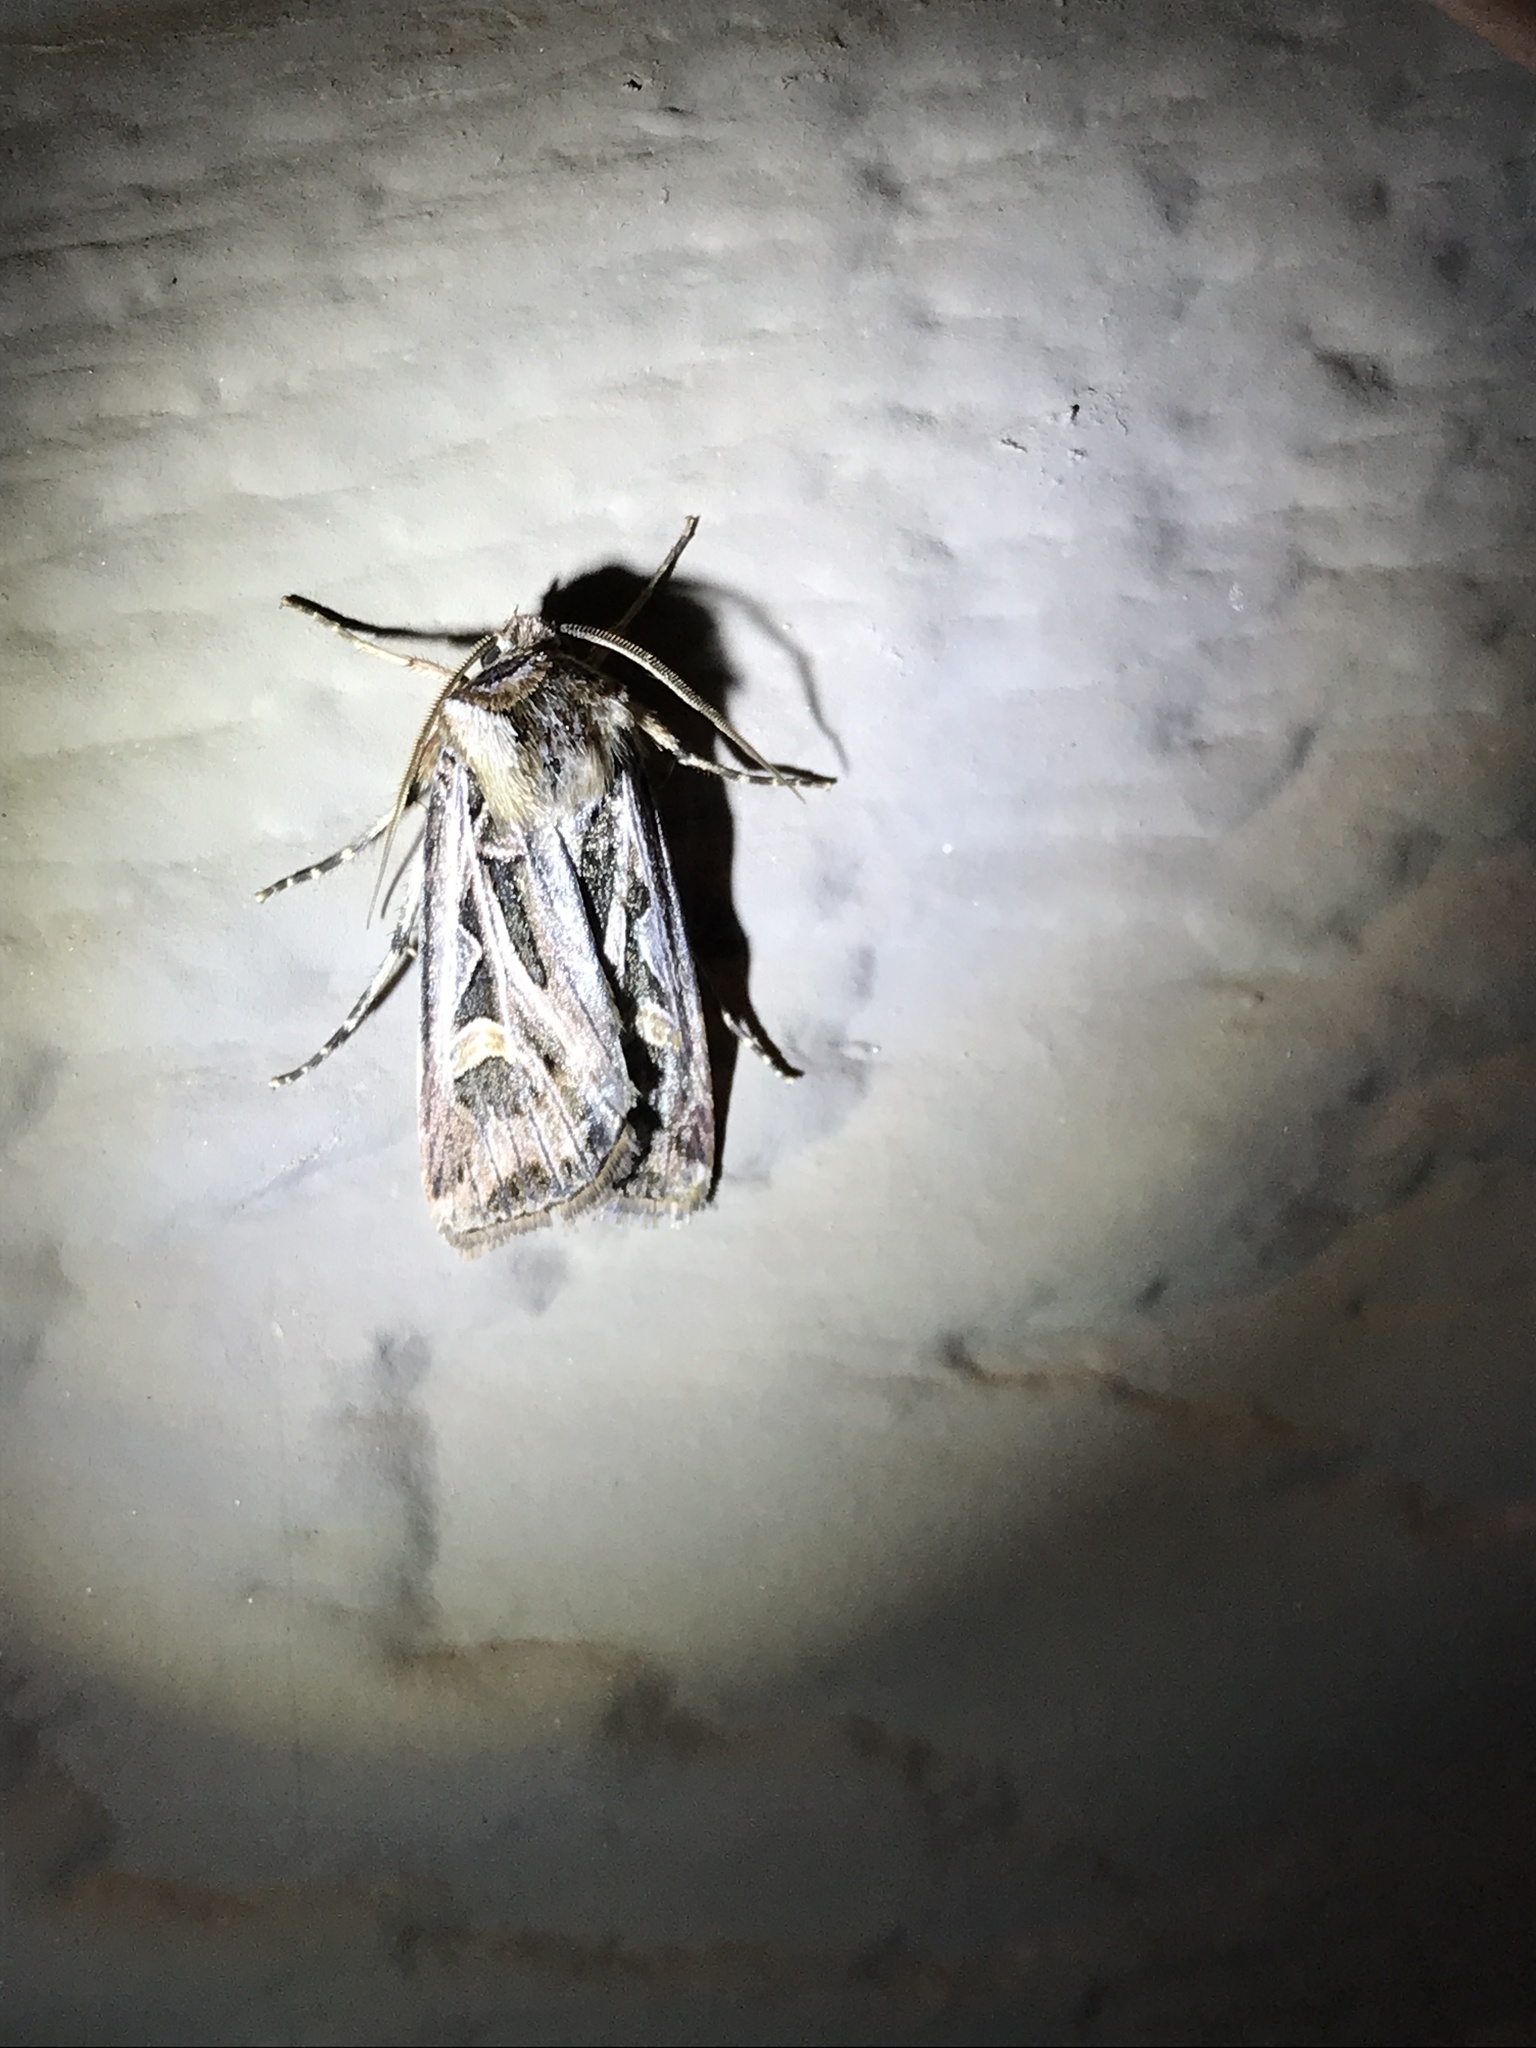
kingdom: Animalia
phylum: Arthropoda
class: Insecta
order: Lepidoptera
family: Noctuidae
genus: Feltia
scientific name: Feltia jaculifera
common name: Dingy cutworm moth
